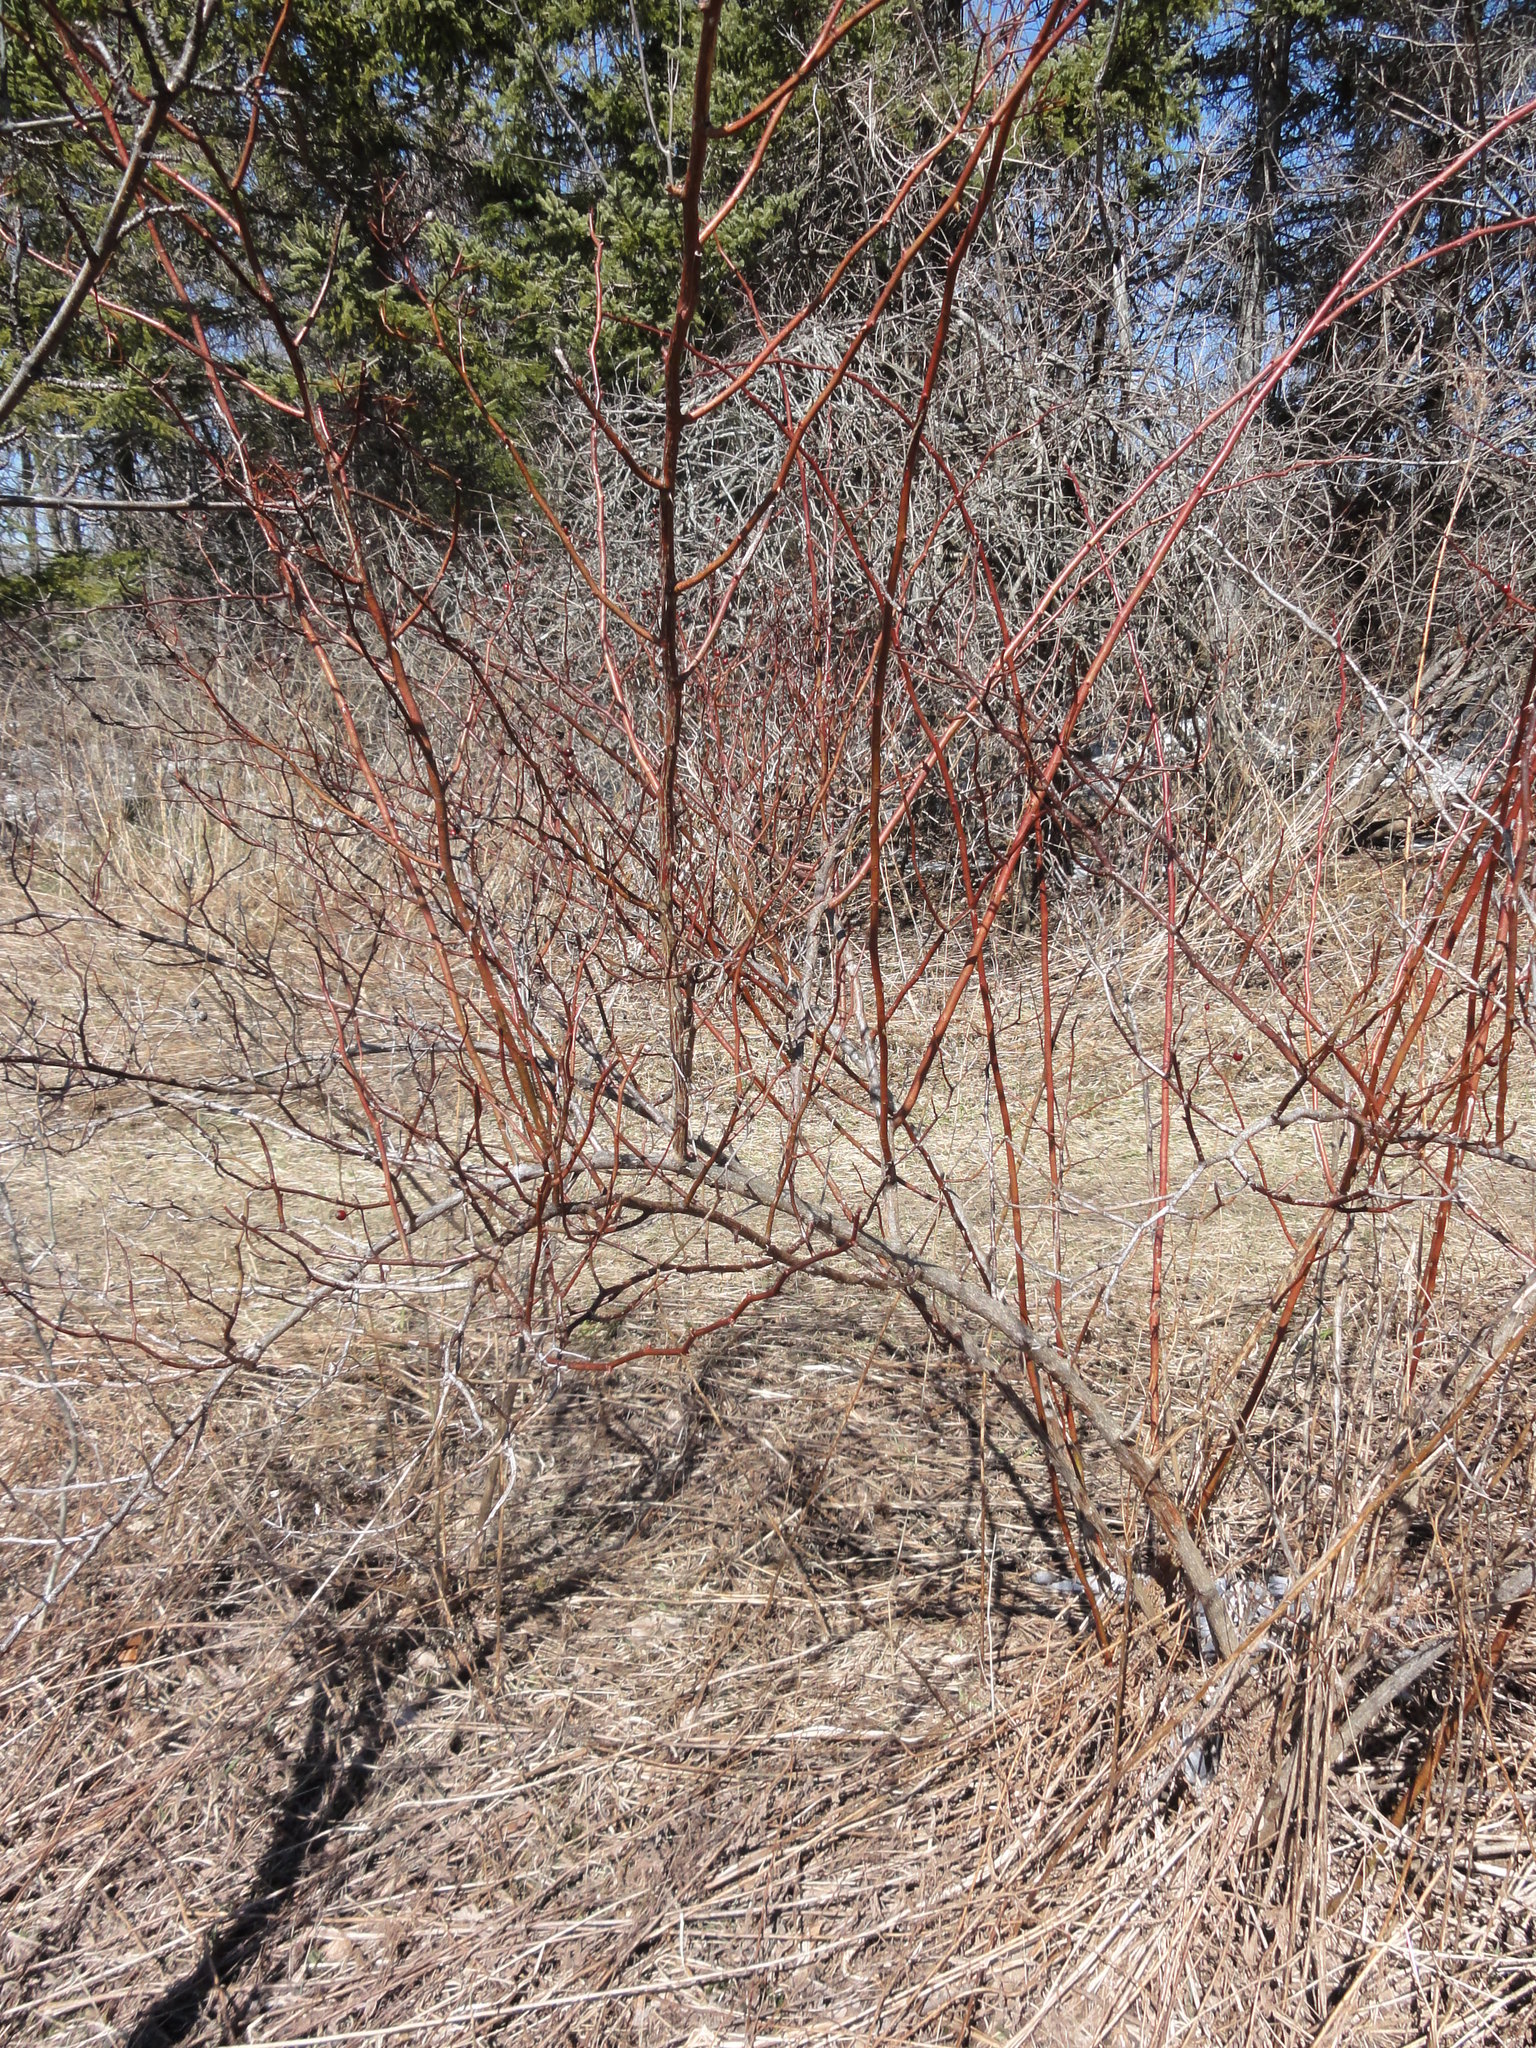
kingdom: Plantae
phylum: Tracheophyta
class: Magnoliopsida
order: Rosales
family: Rosaceae
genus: Rosa
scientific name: Rosa multiflora
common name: Multiflora rose
